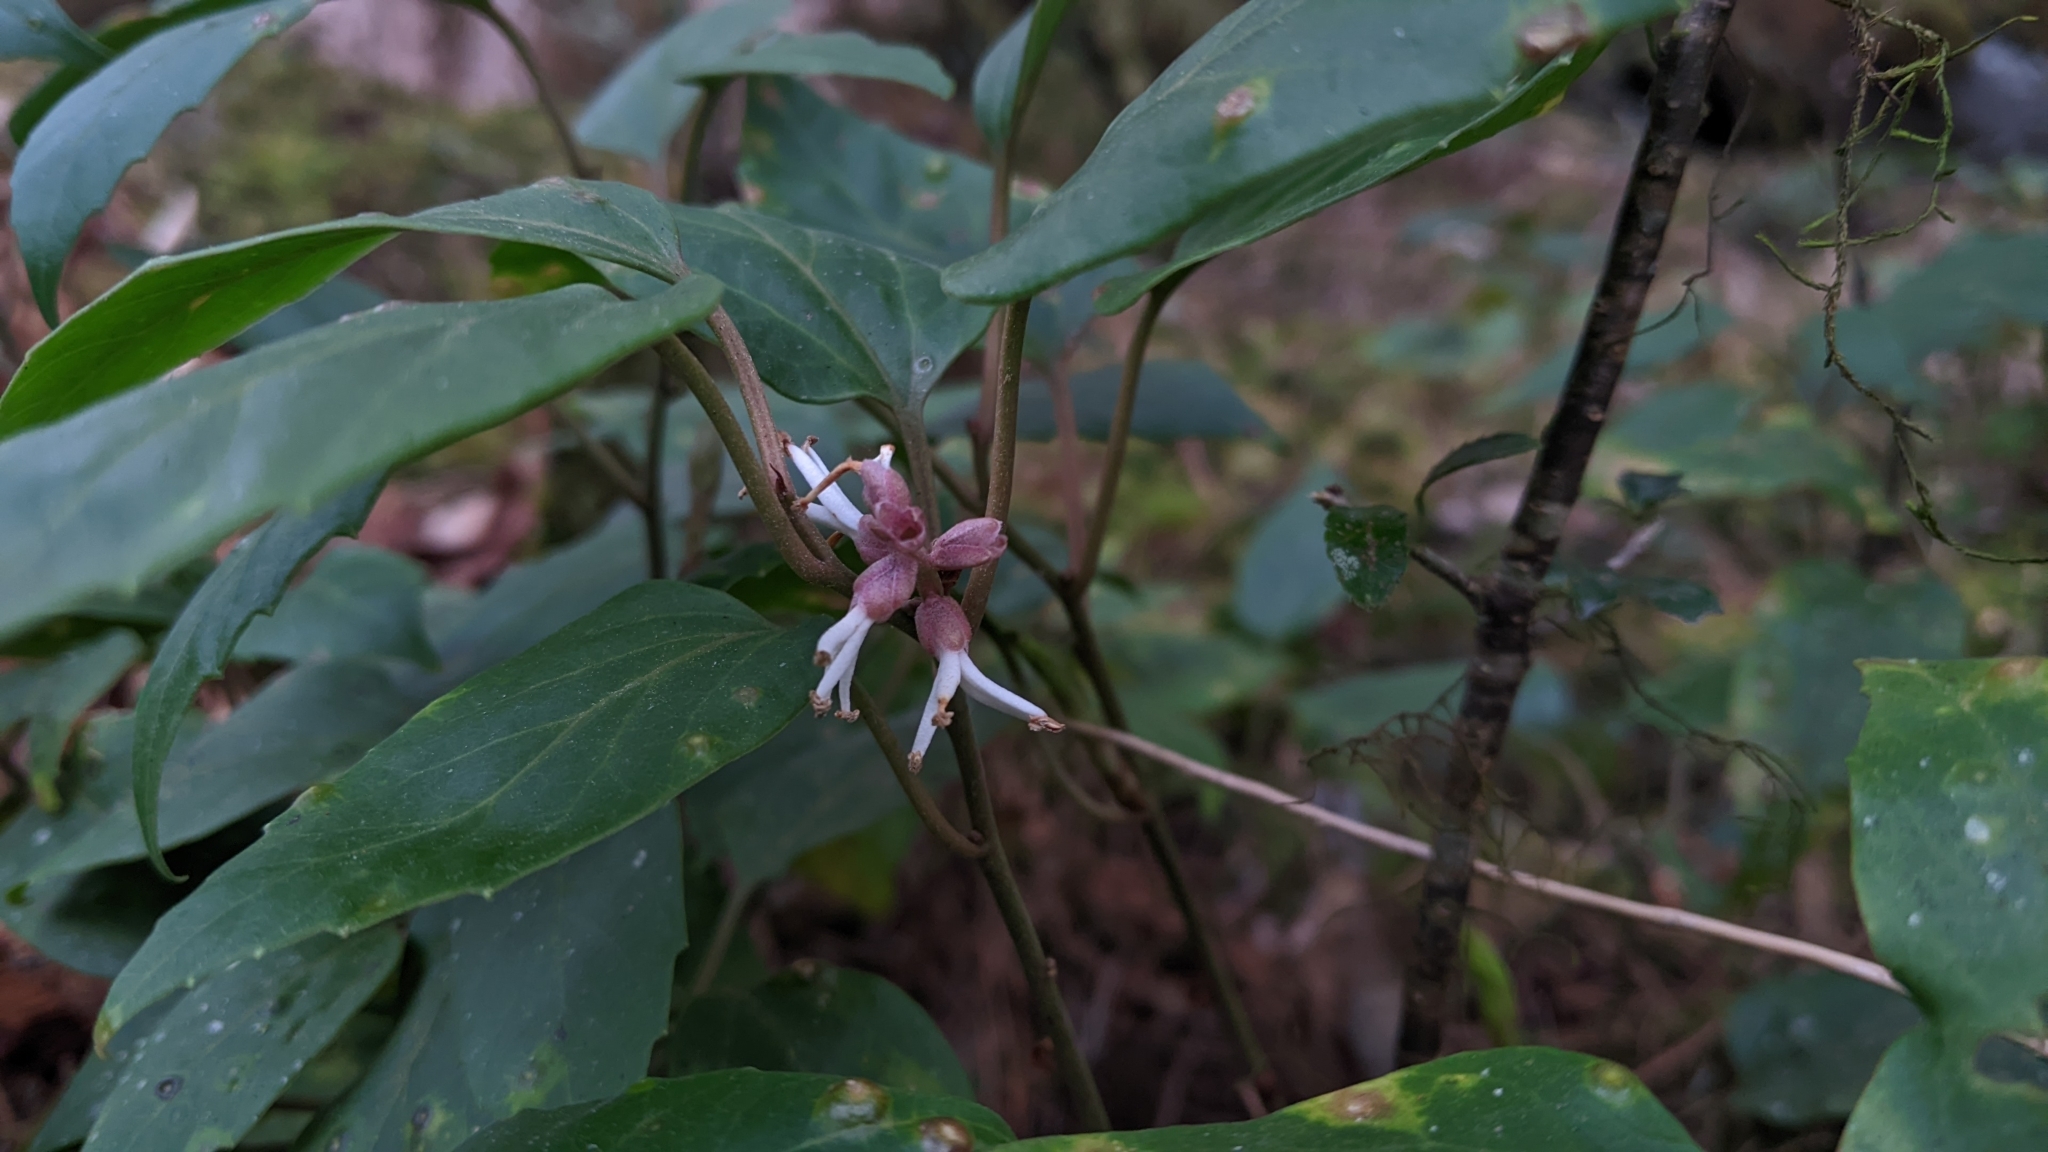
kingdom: Plantae
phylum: Tracheophyta
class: Magnoliopsida
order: Buxales
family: Buxaceae
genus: Pachysandra
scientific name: Pachysandra axillaris
